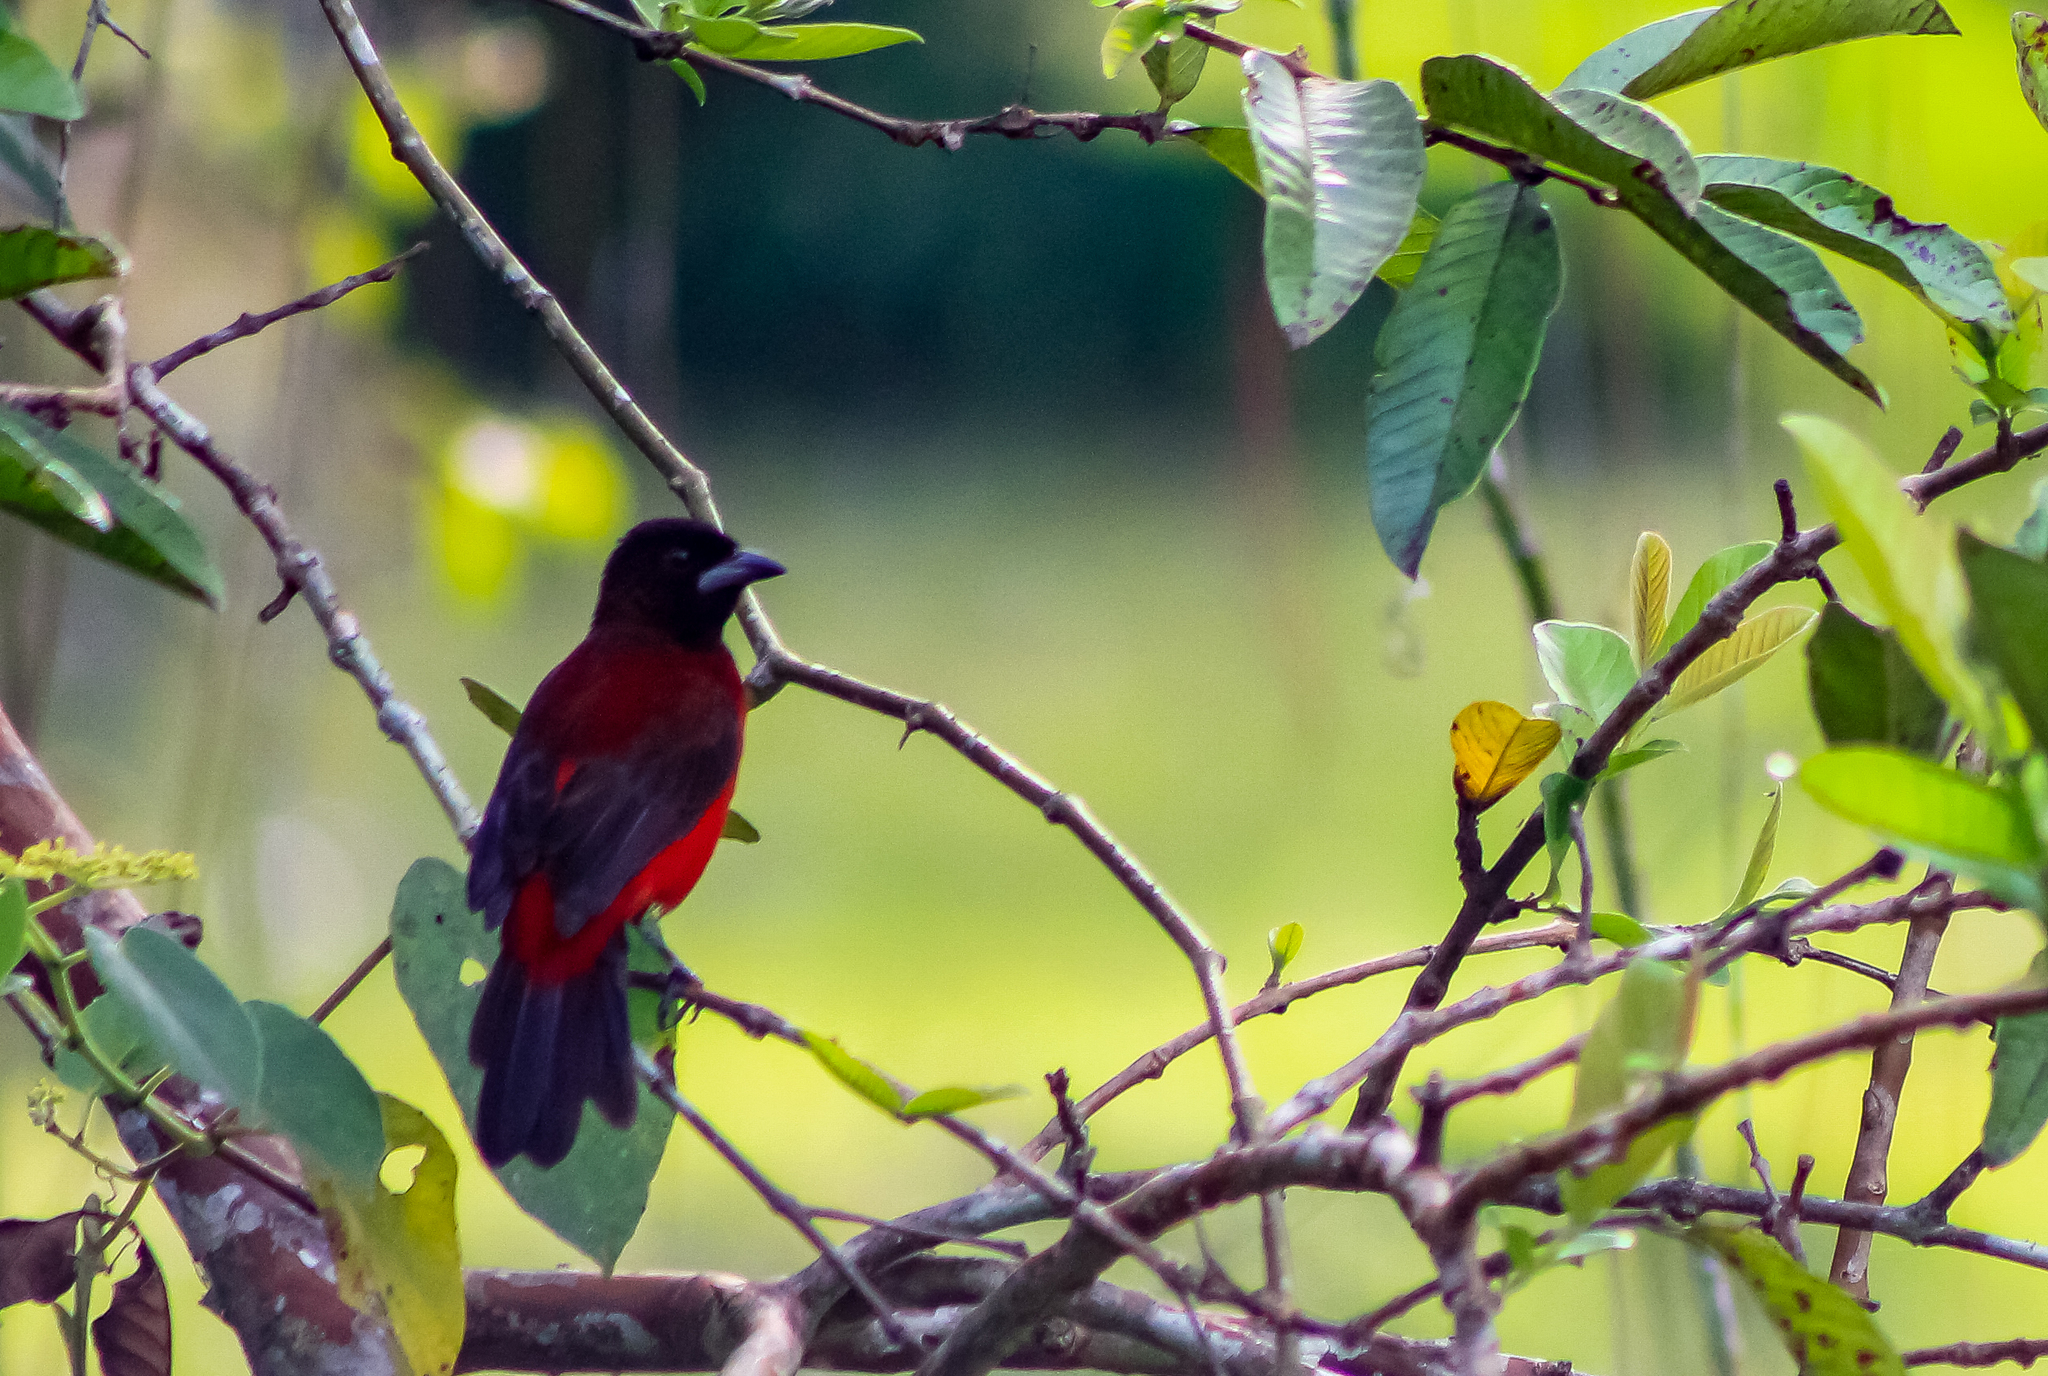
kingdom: Animalia
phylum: Chordata
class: Aves
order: Passeriformes
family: Thraupidae
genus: Ramphocelus
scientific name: Ramphocelus dimidiatus
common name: Crimson-backed tanager
